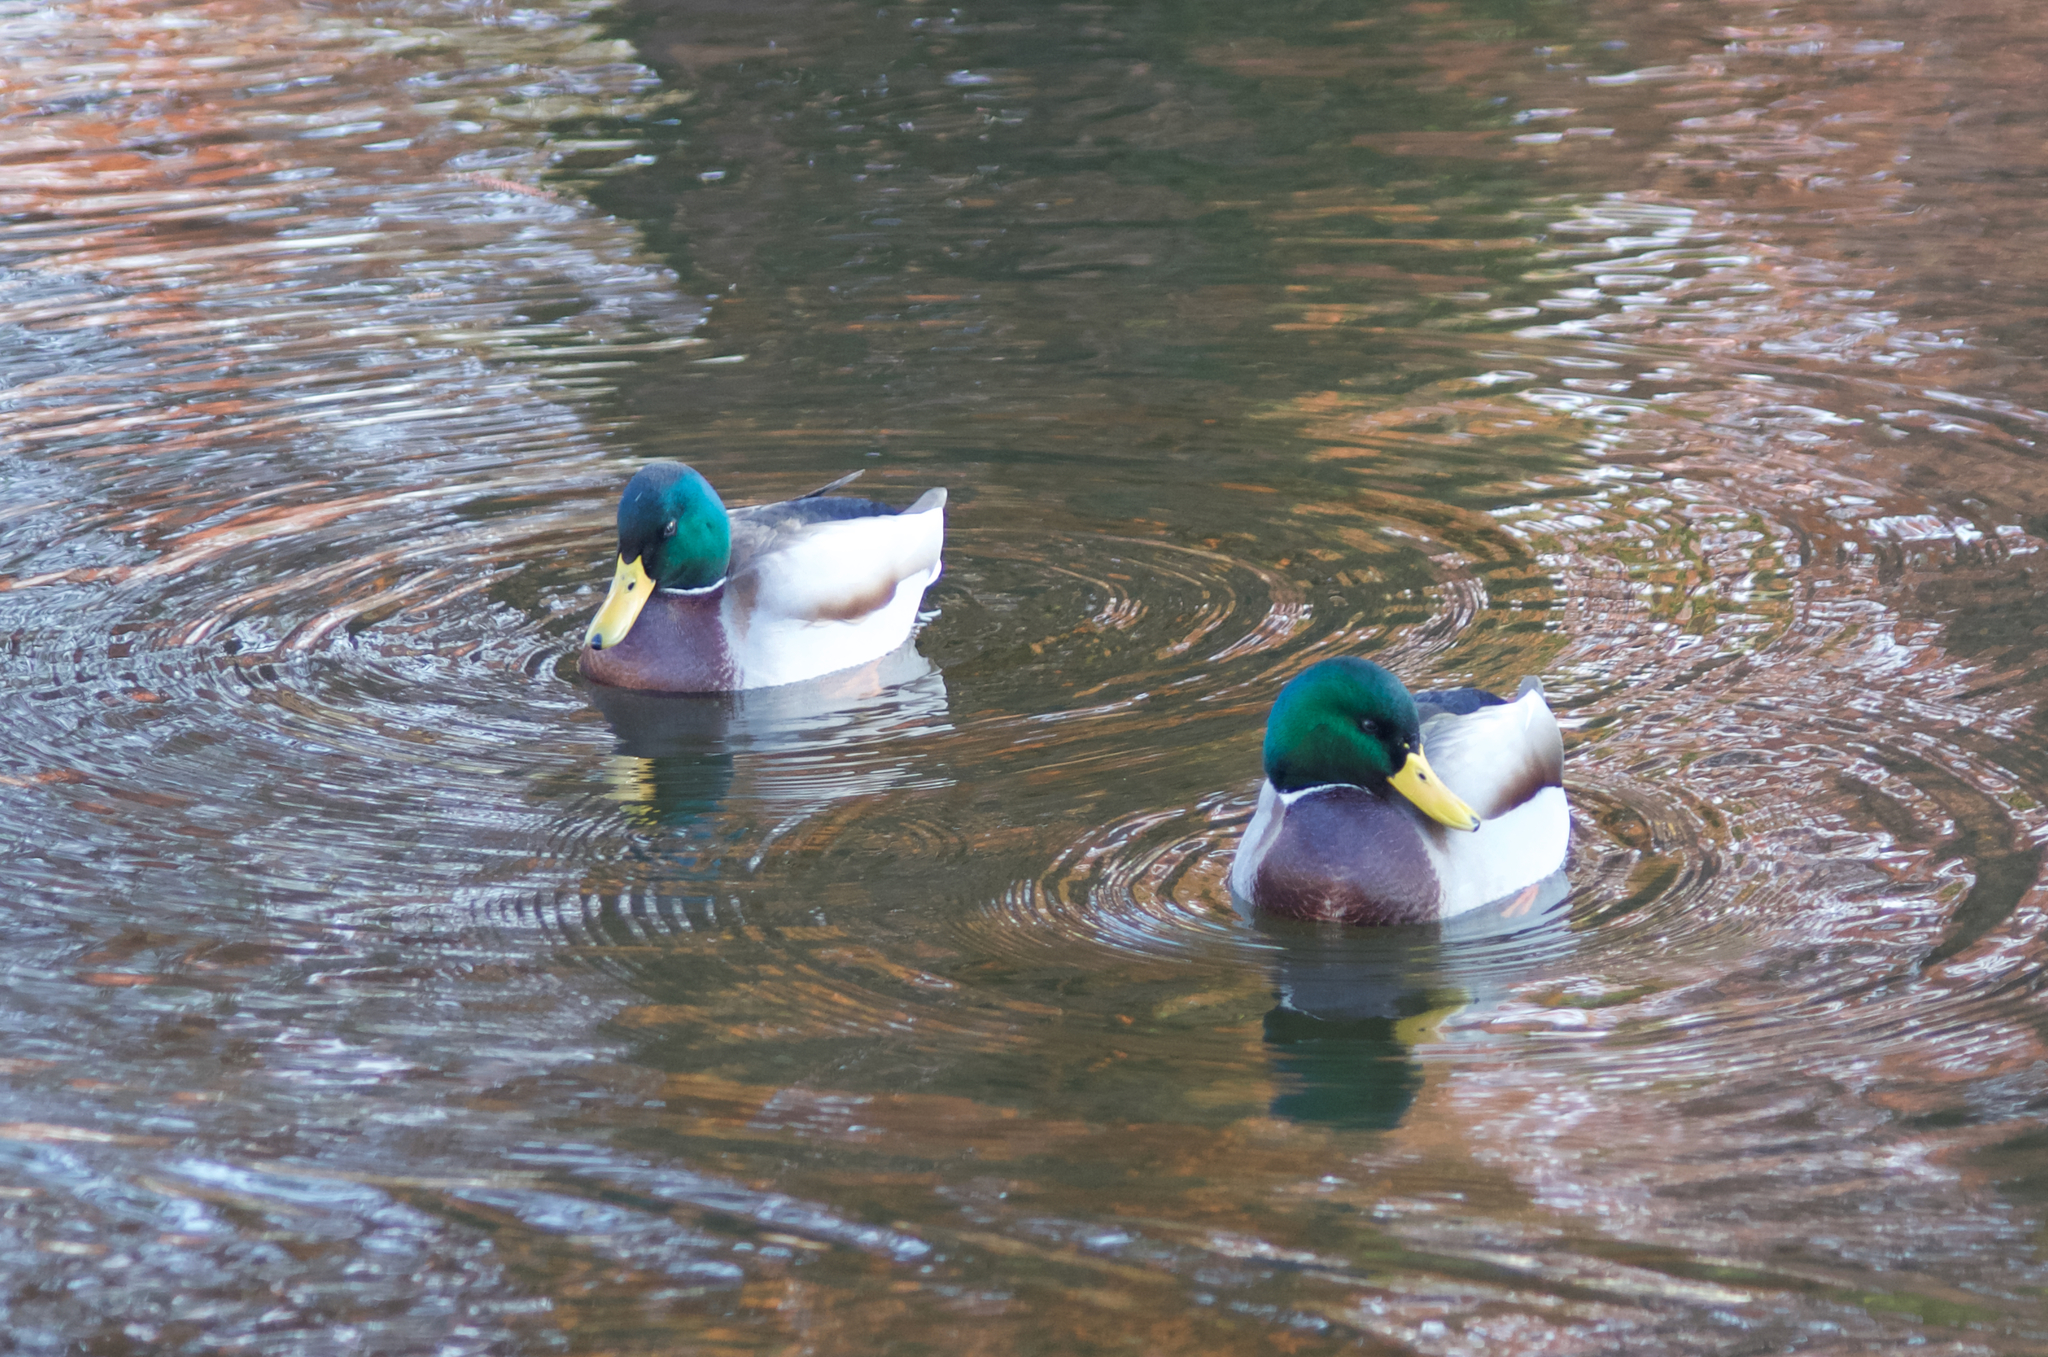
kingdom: Animalia
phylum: Chordata
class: Aves
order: Anseriformes
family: Anatidae
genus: Anas
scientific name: Anas platyrhynchos
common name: Mallard
